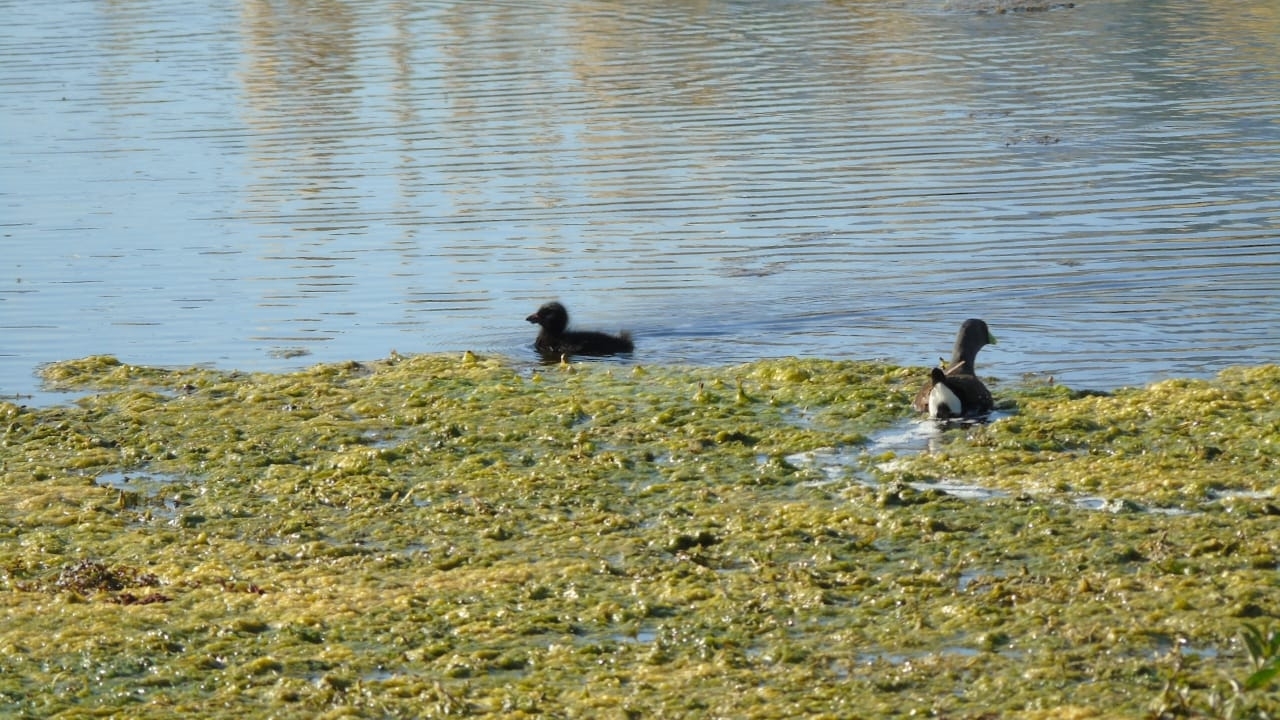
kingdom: Animalia
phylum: Chordata
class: Aves
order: Gruiformes
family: Rallidae
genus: Gallinula
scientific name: Gallinula melanops
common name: Spot-flanked gallinule
